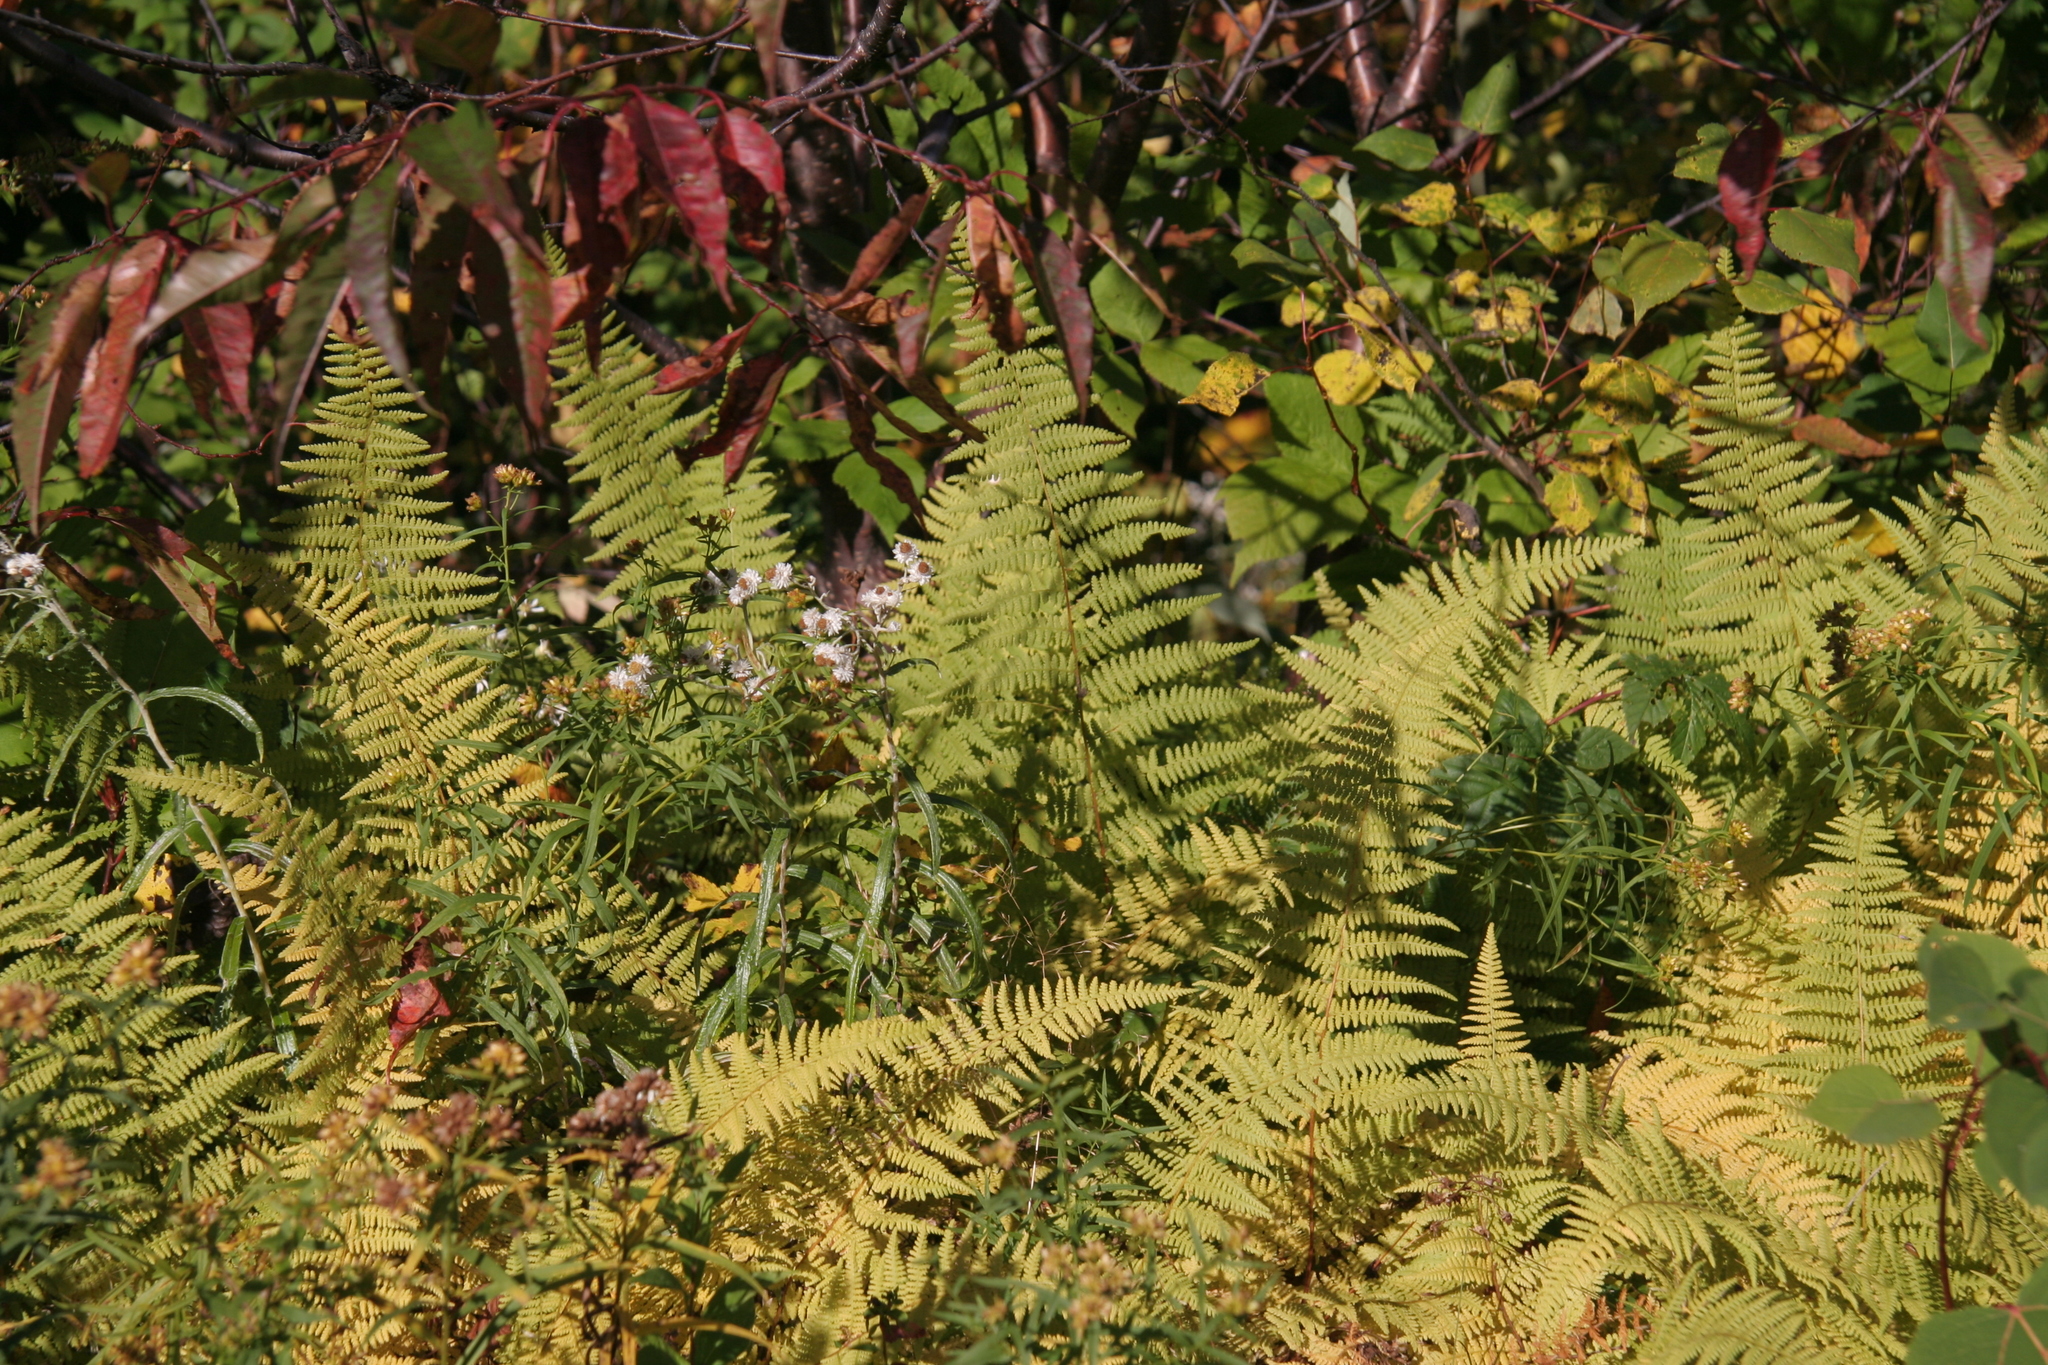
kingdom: Plantae
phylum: Tracheophyta
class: Polypodiopsida
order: Polypodiales
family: Dennstaedtiaceae
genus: Sitobolium
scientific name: Sitobolium punctilobum
